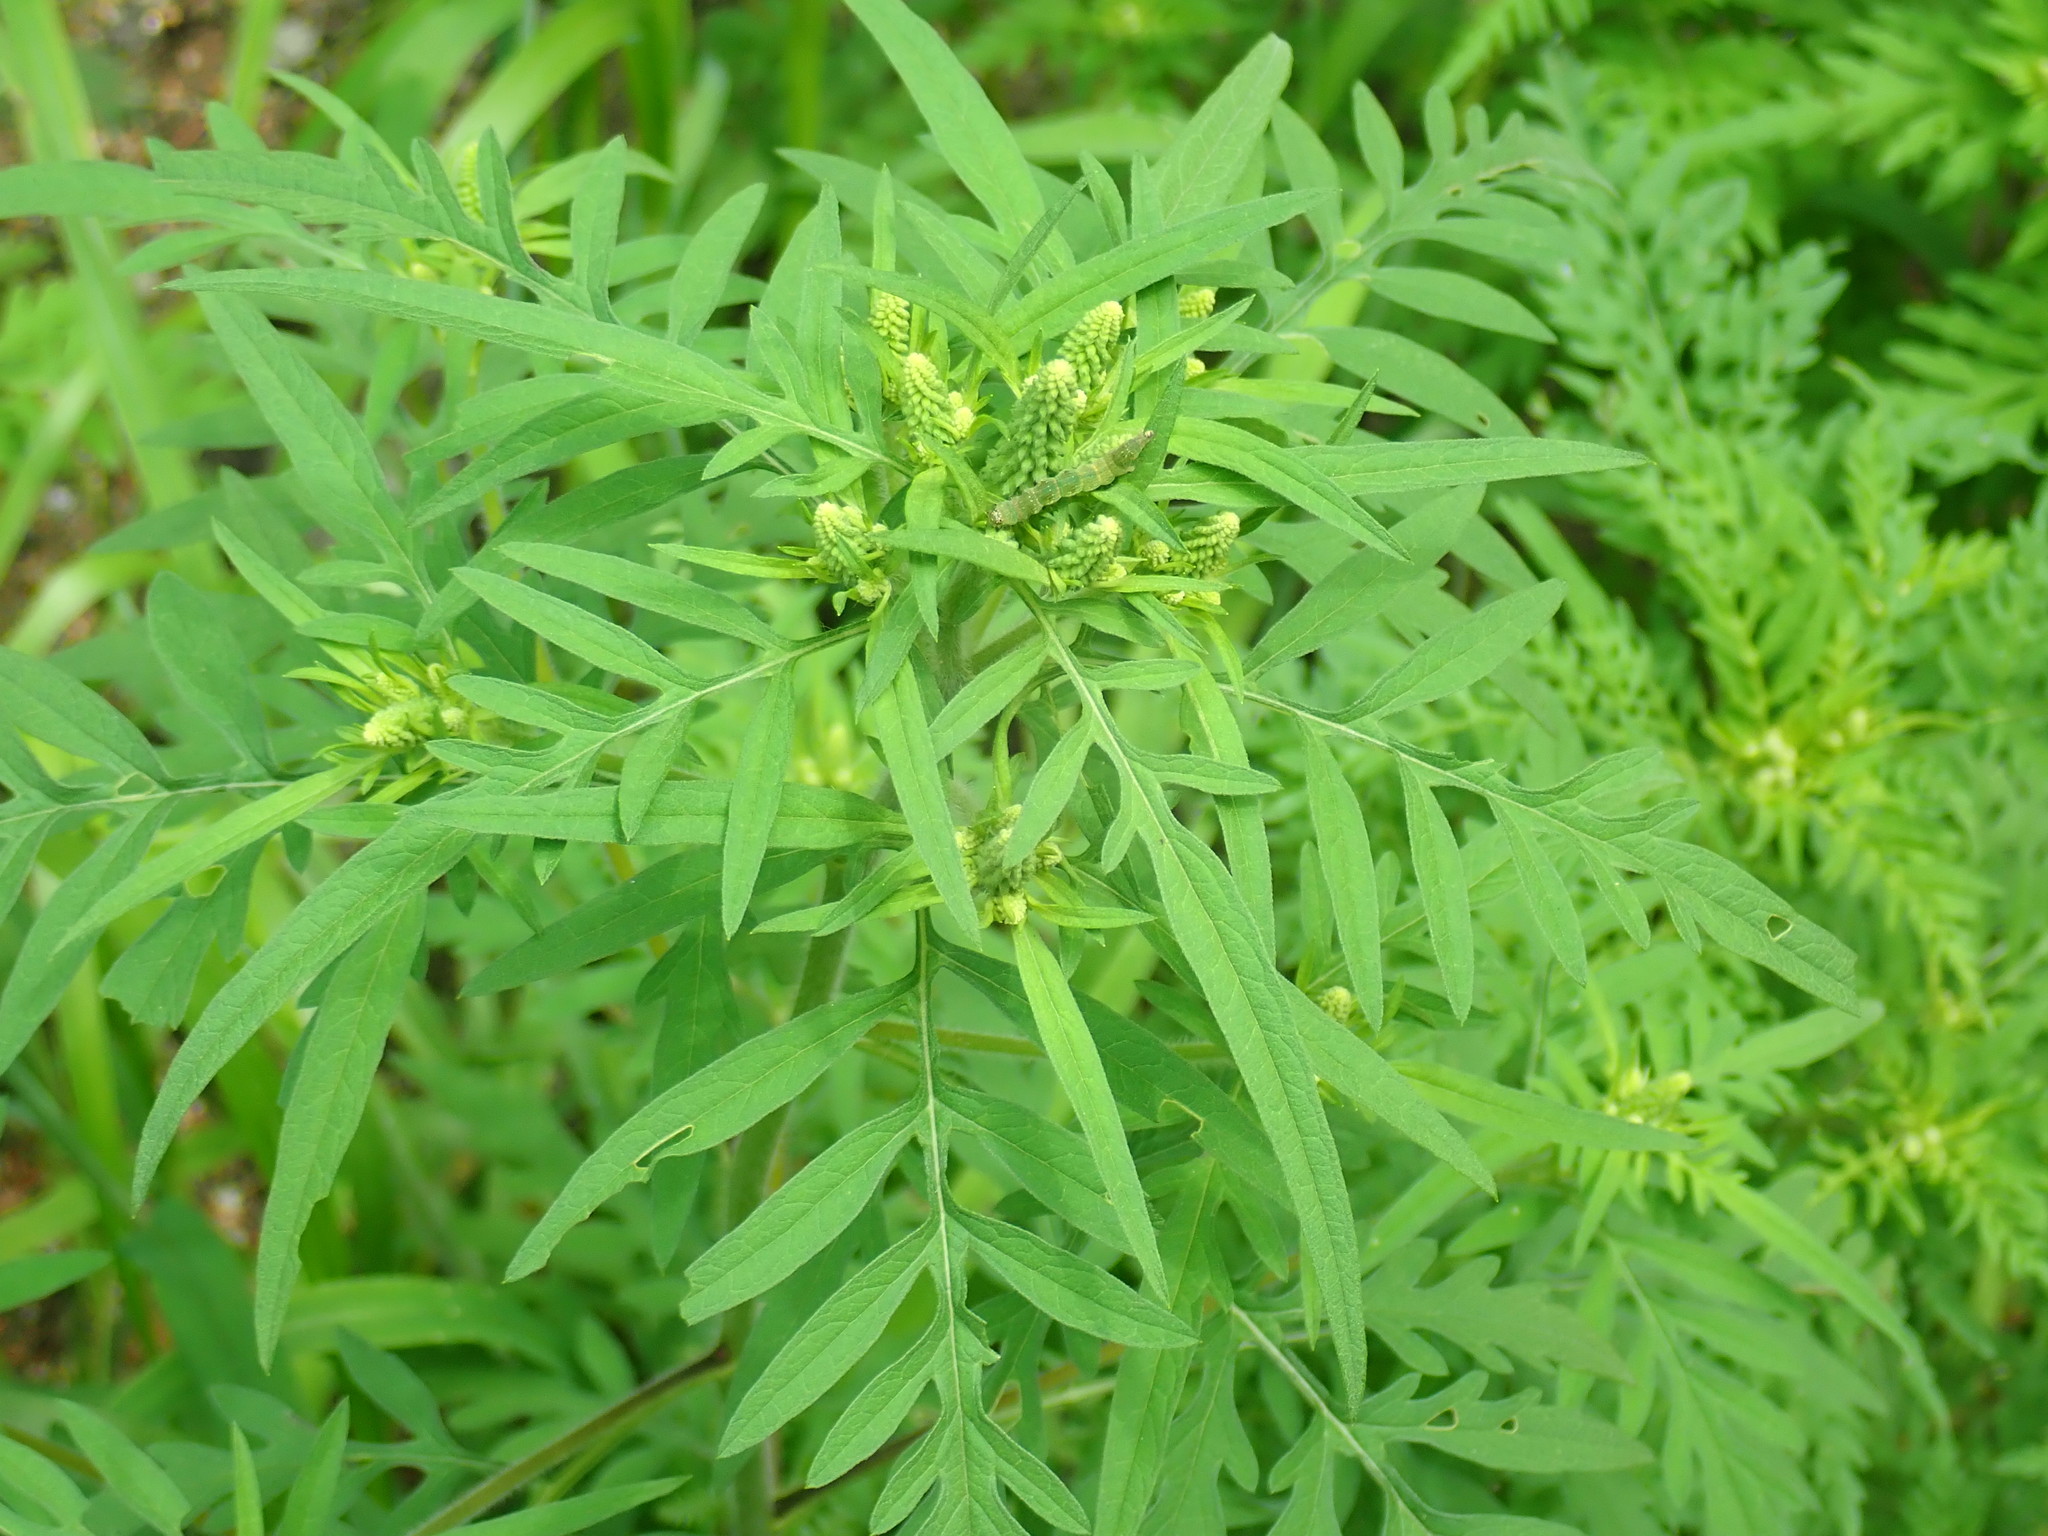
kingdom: Plantae
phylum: Tracheophyta
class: Magnoliopsida
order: Asterales
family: Asteraceae
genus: Ambrosia
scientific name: Ambrosia artemisiifolia
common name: Annual ragweed
